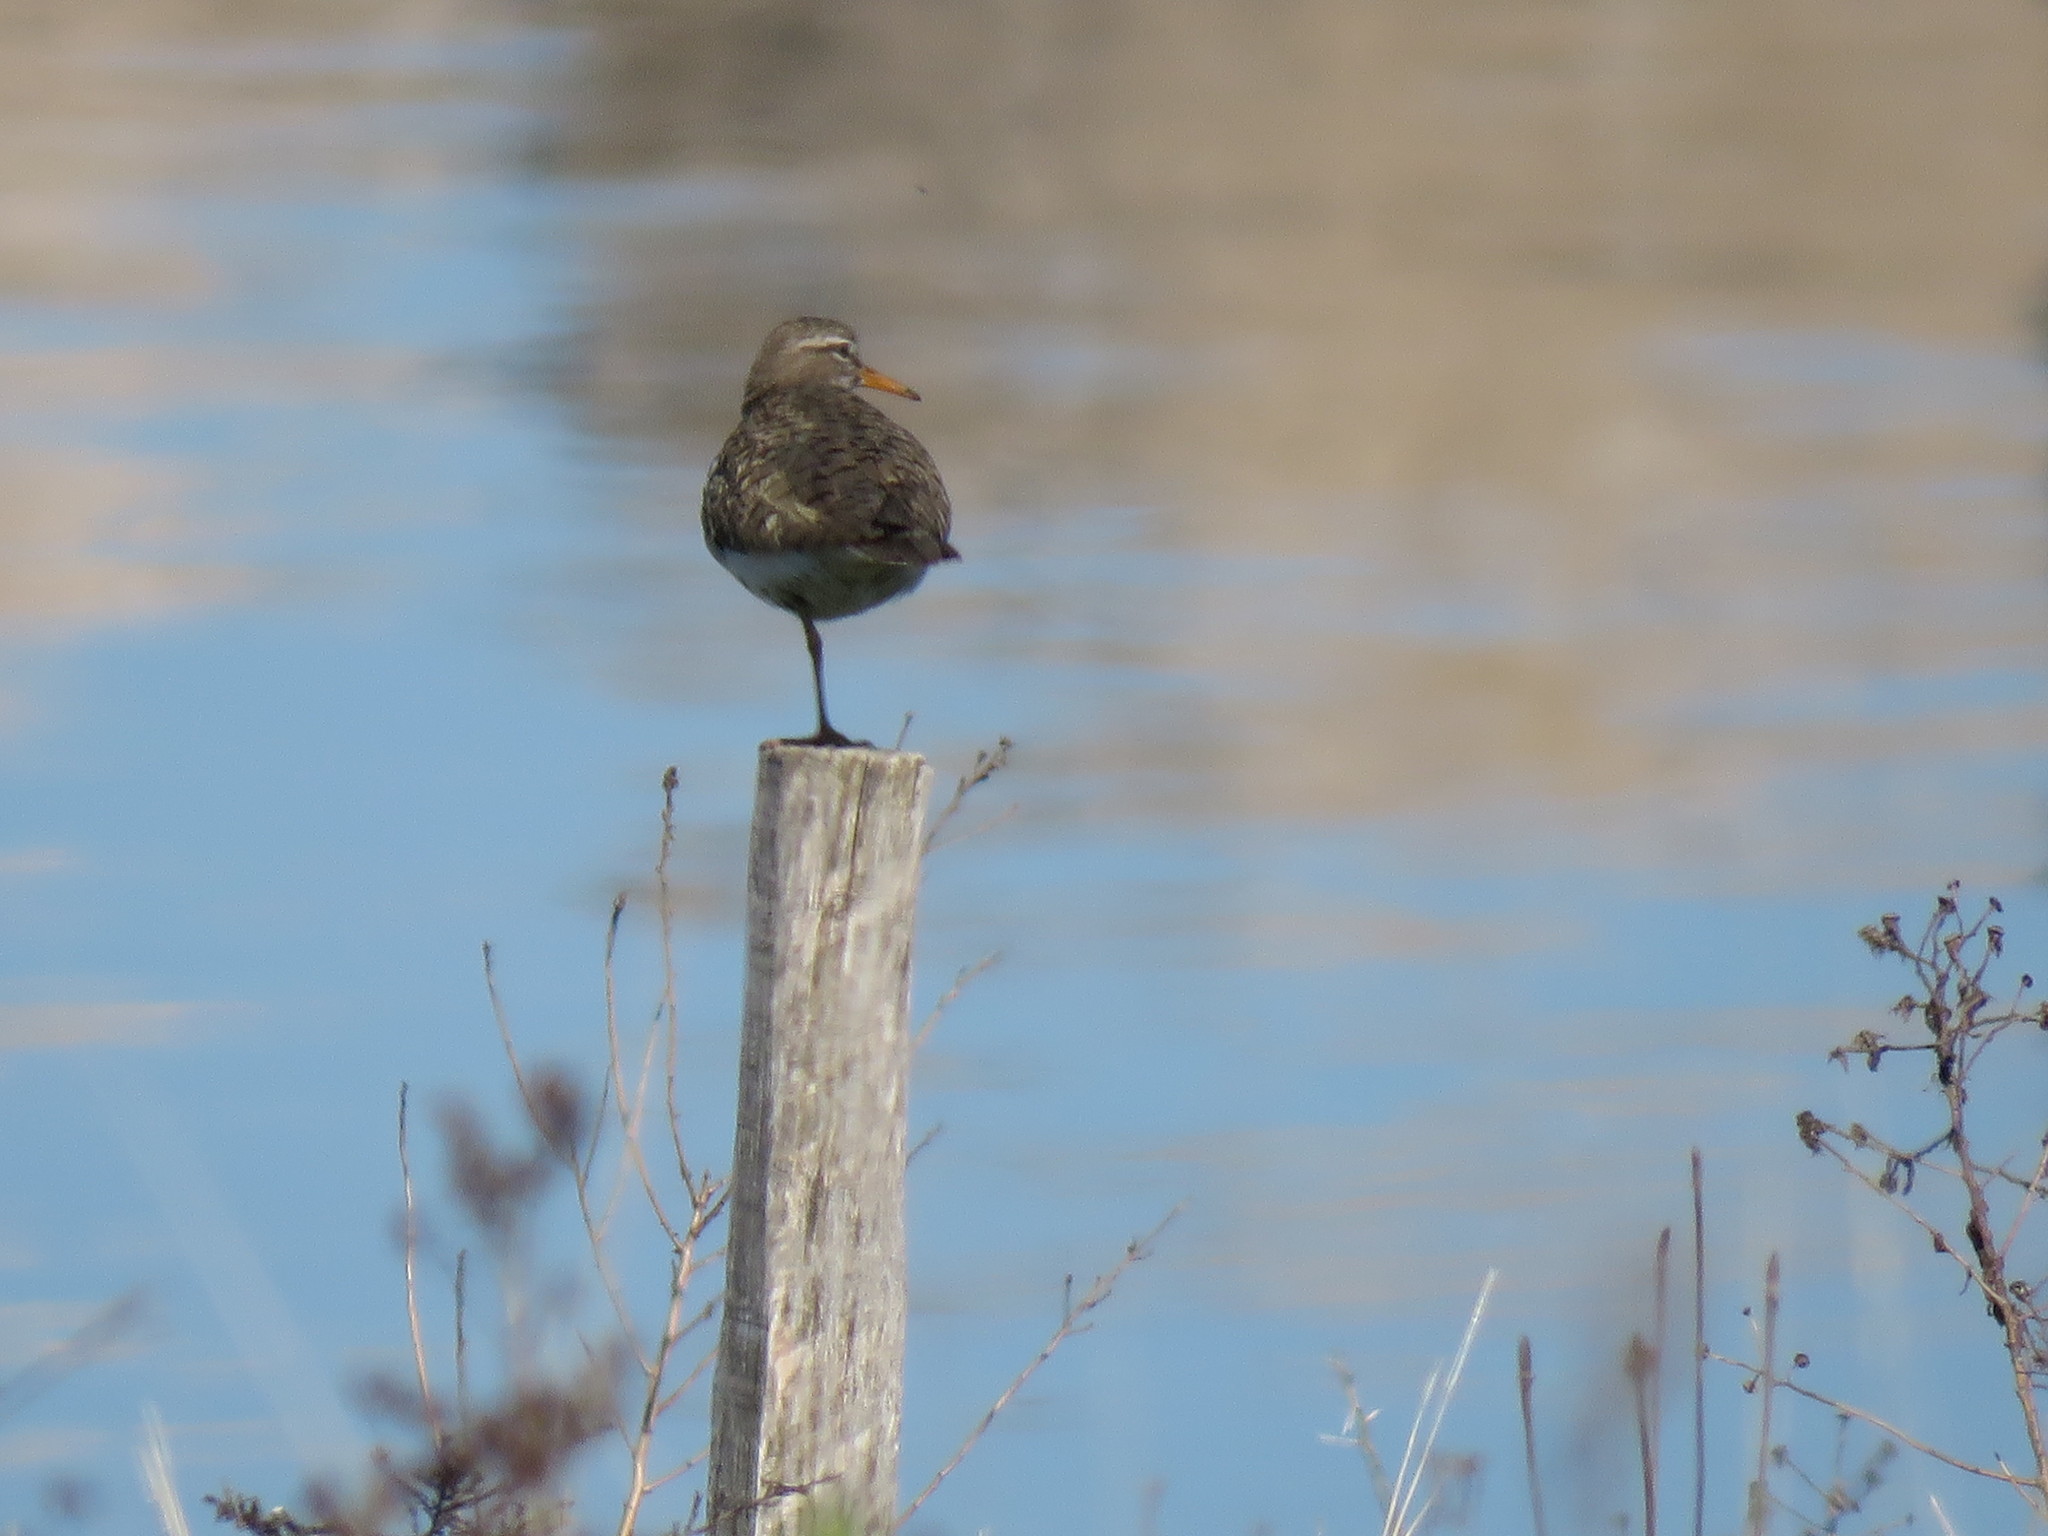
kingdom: Animalia
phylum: Chordata
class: Aves
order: Charadriiformes
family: Scolopacidae
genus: Actitis
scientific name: Actitis macularius
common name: Spotted sandpiper
